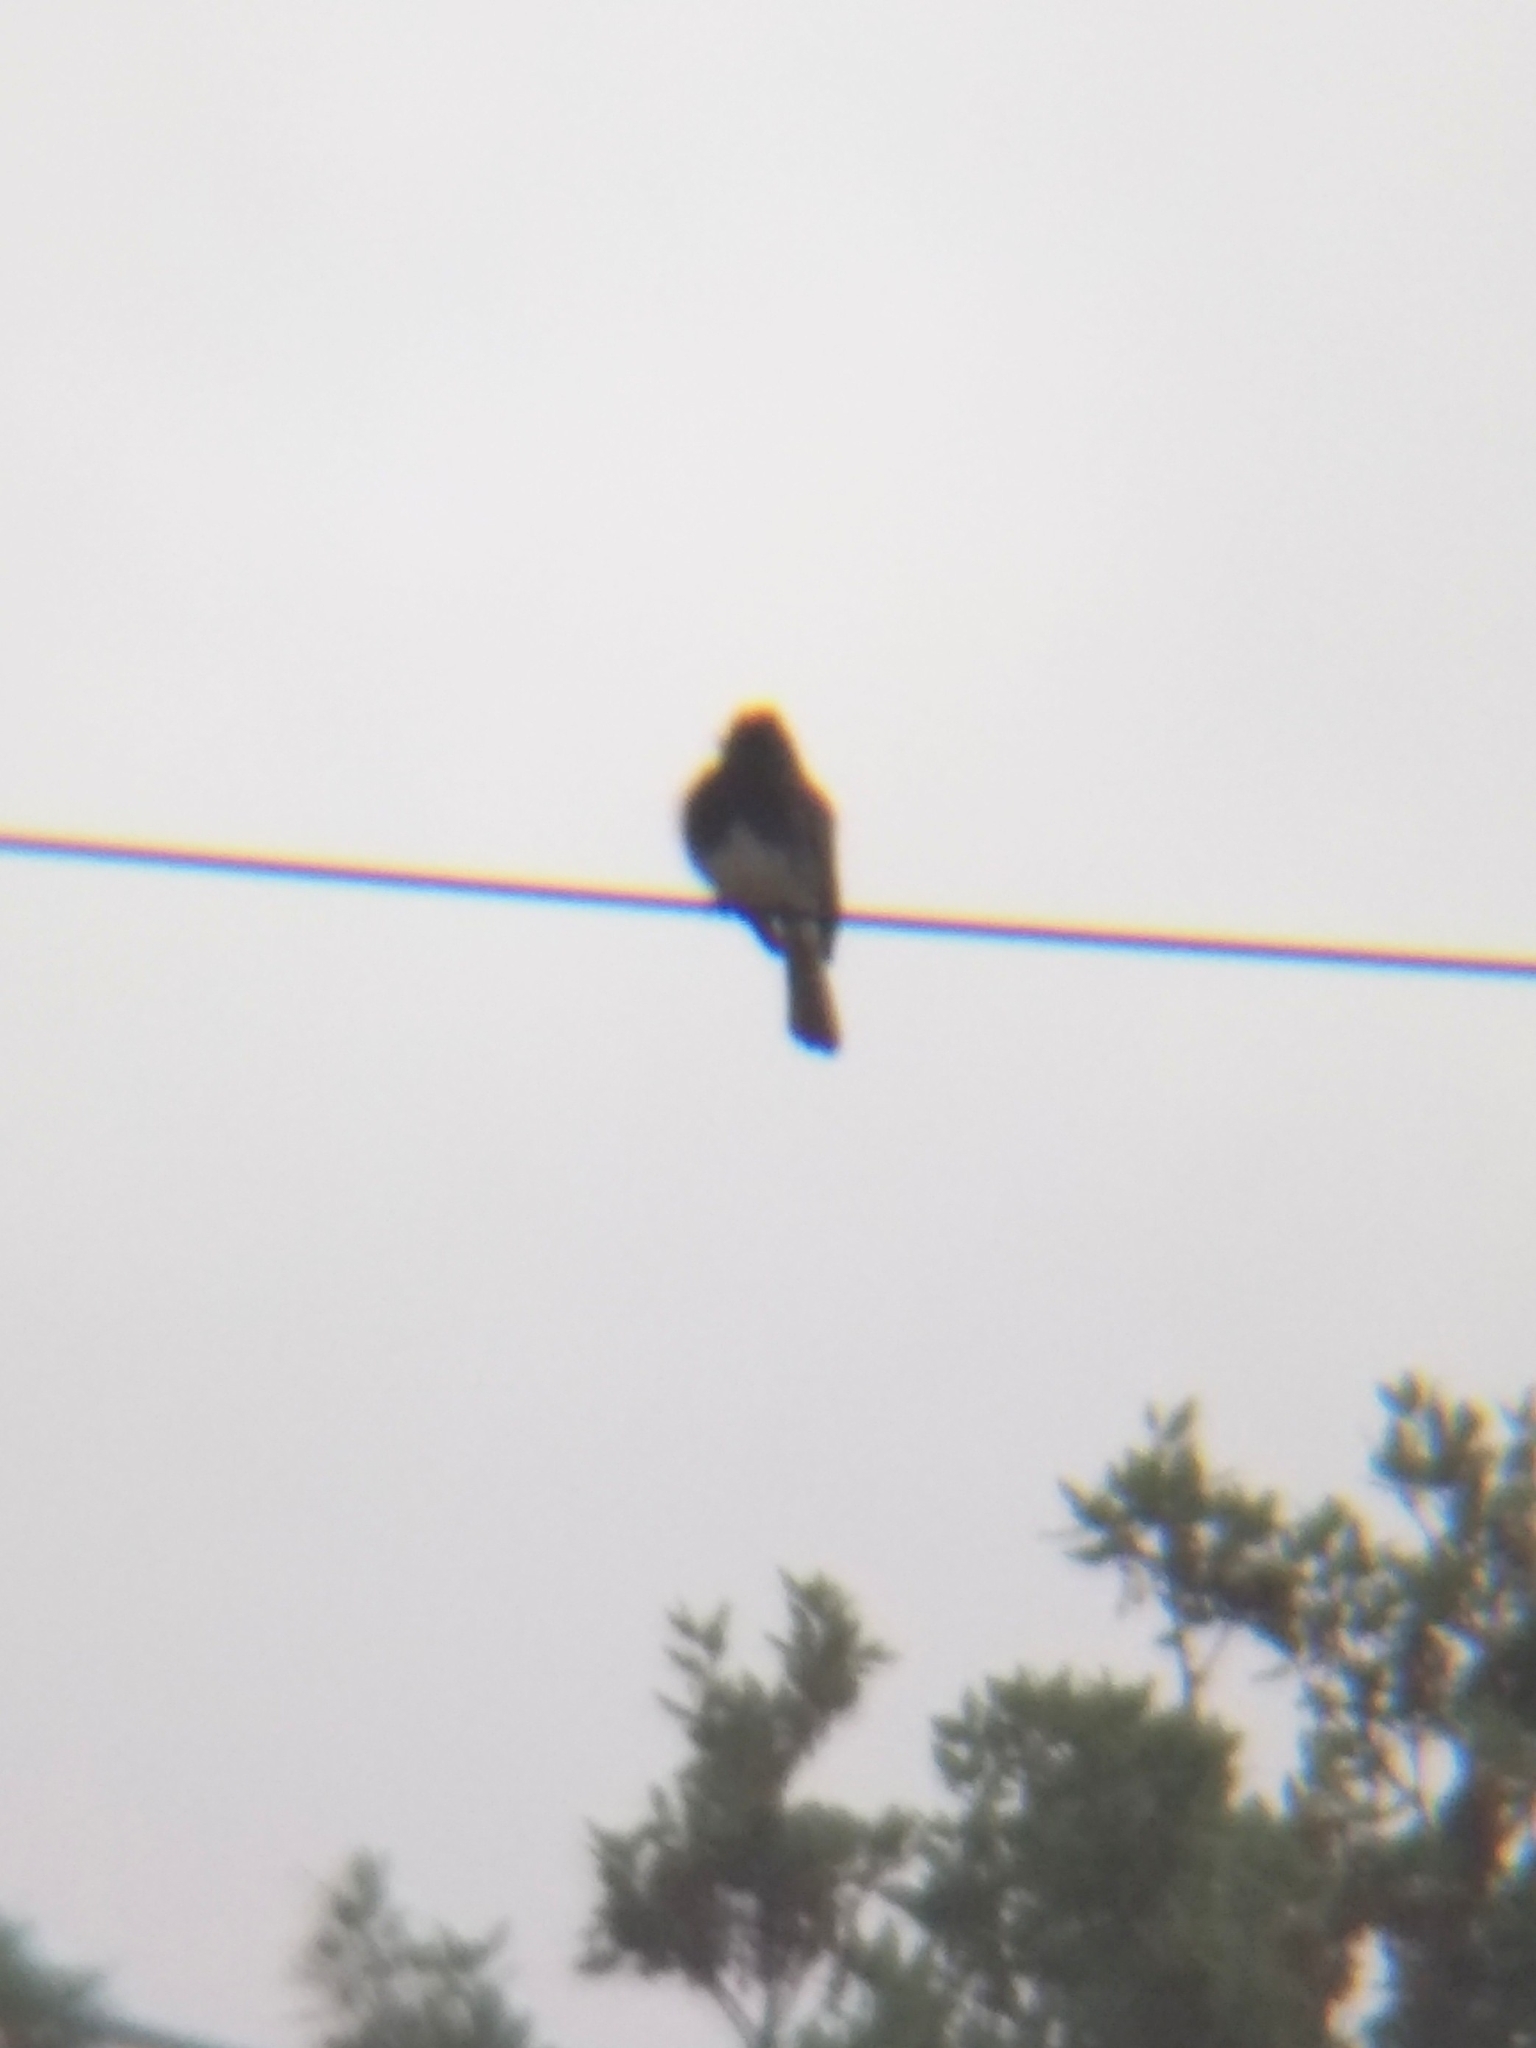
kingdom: Animalia
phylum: Chordata
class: Aves
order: Passeriformes
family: Tyrannidae
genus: Sayornis
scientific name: Sayornis nigricans
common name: Black phoebe
